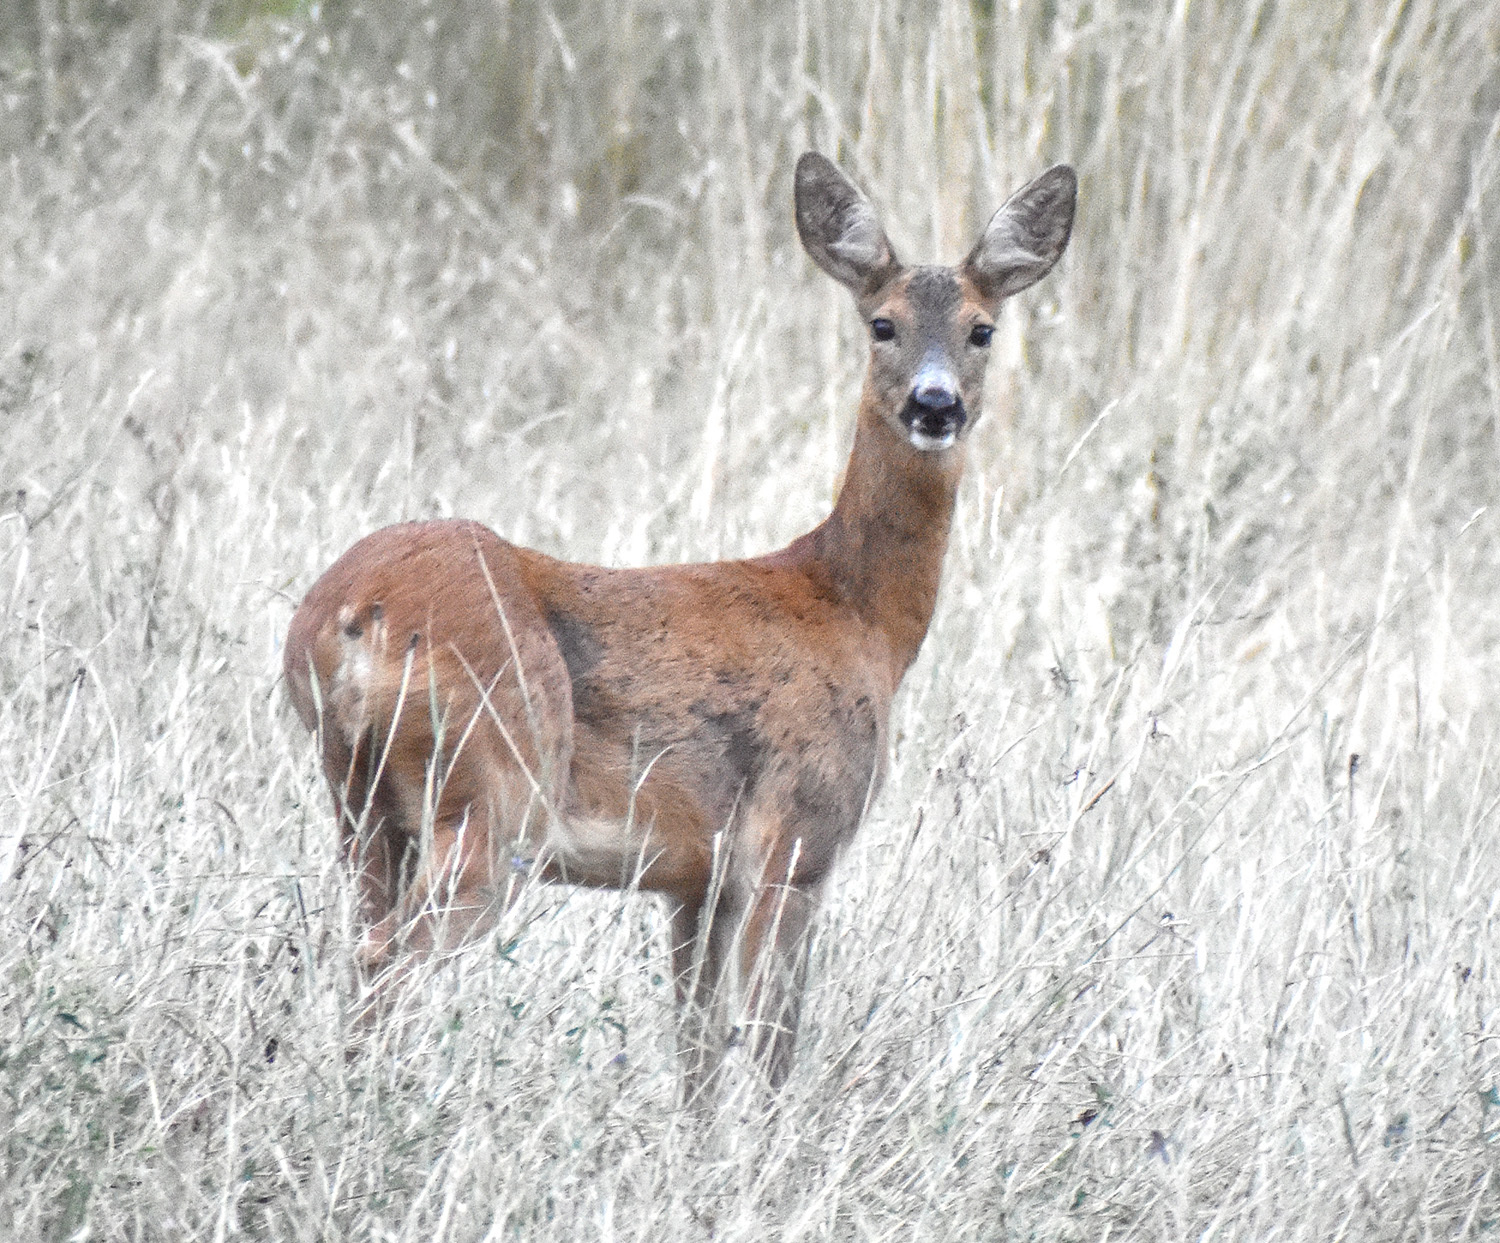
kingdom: Animalia
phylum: Chordata
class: Mammalia
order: Artiodactyla
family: Cervidae
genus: Capreolus
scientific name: Capreolus capreolus
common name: Western roe deer
